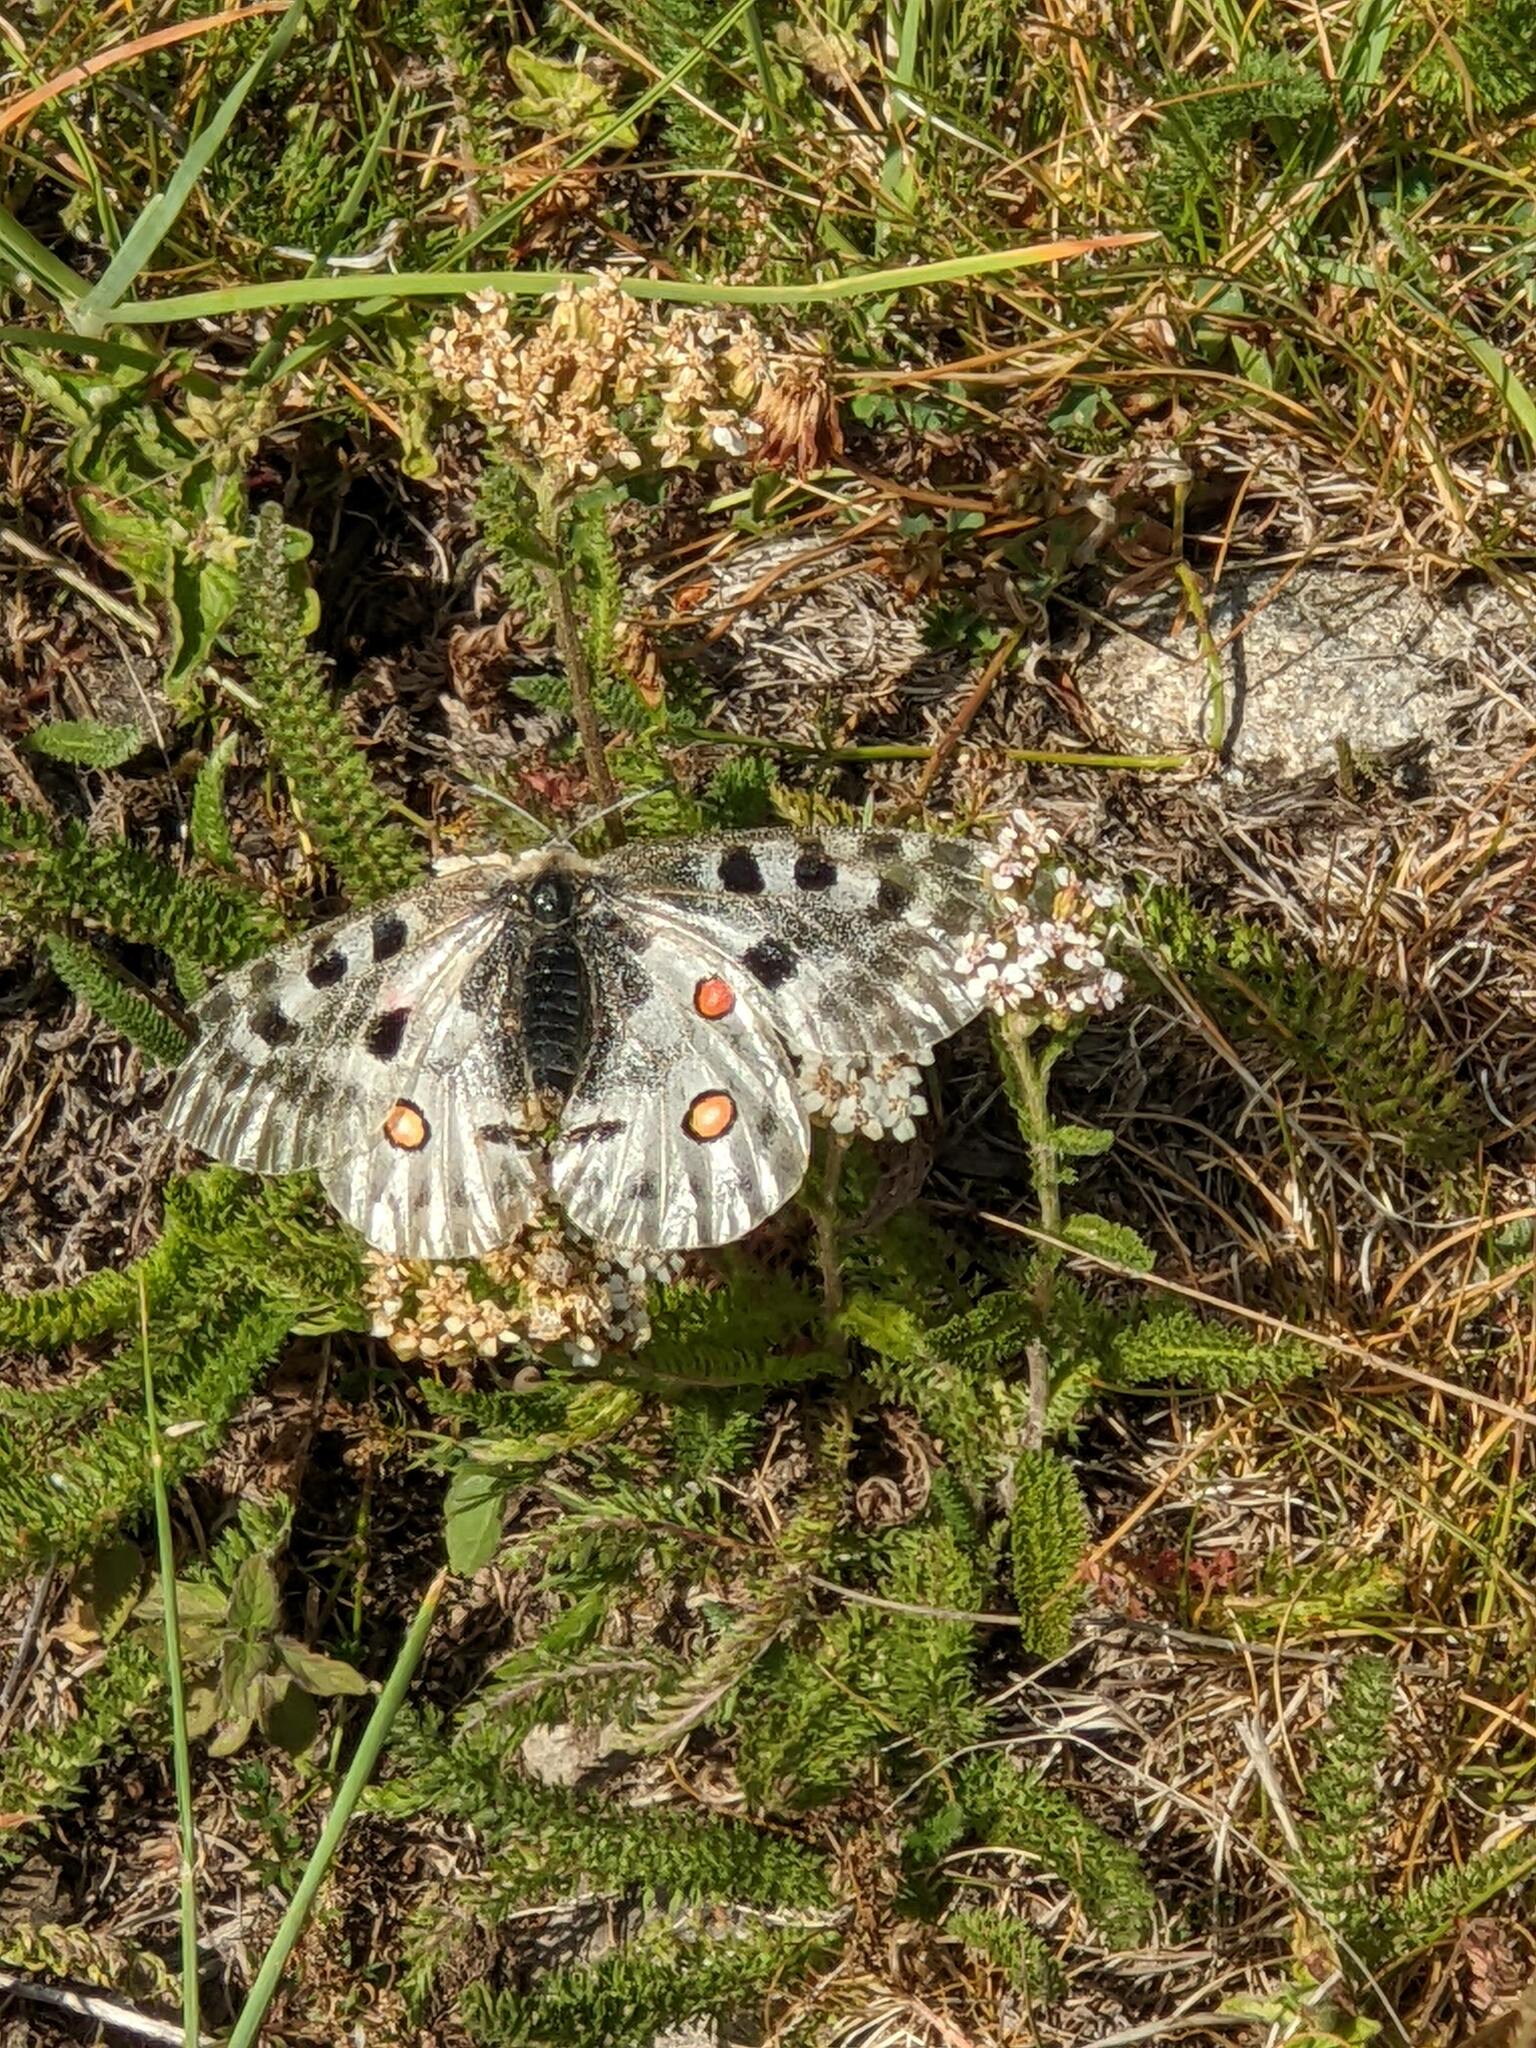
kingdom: Animalia
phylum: Arthropoda
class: Insecta
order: Lepidoptera
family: Papilionidae
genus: Parnassius
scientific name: Parnassius apollo
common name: Apollo
